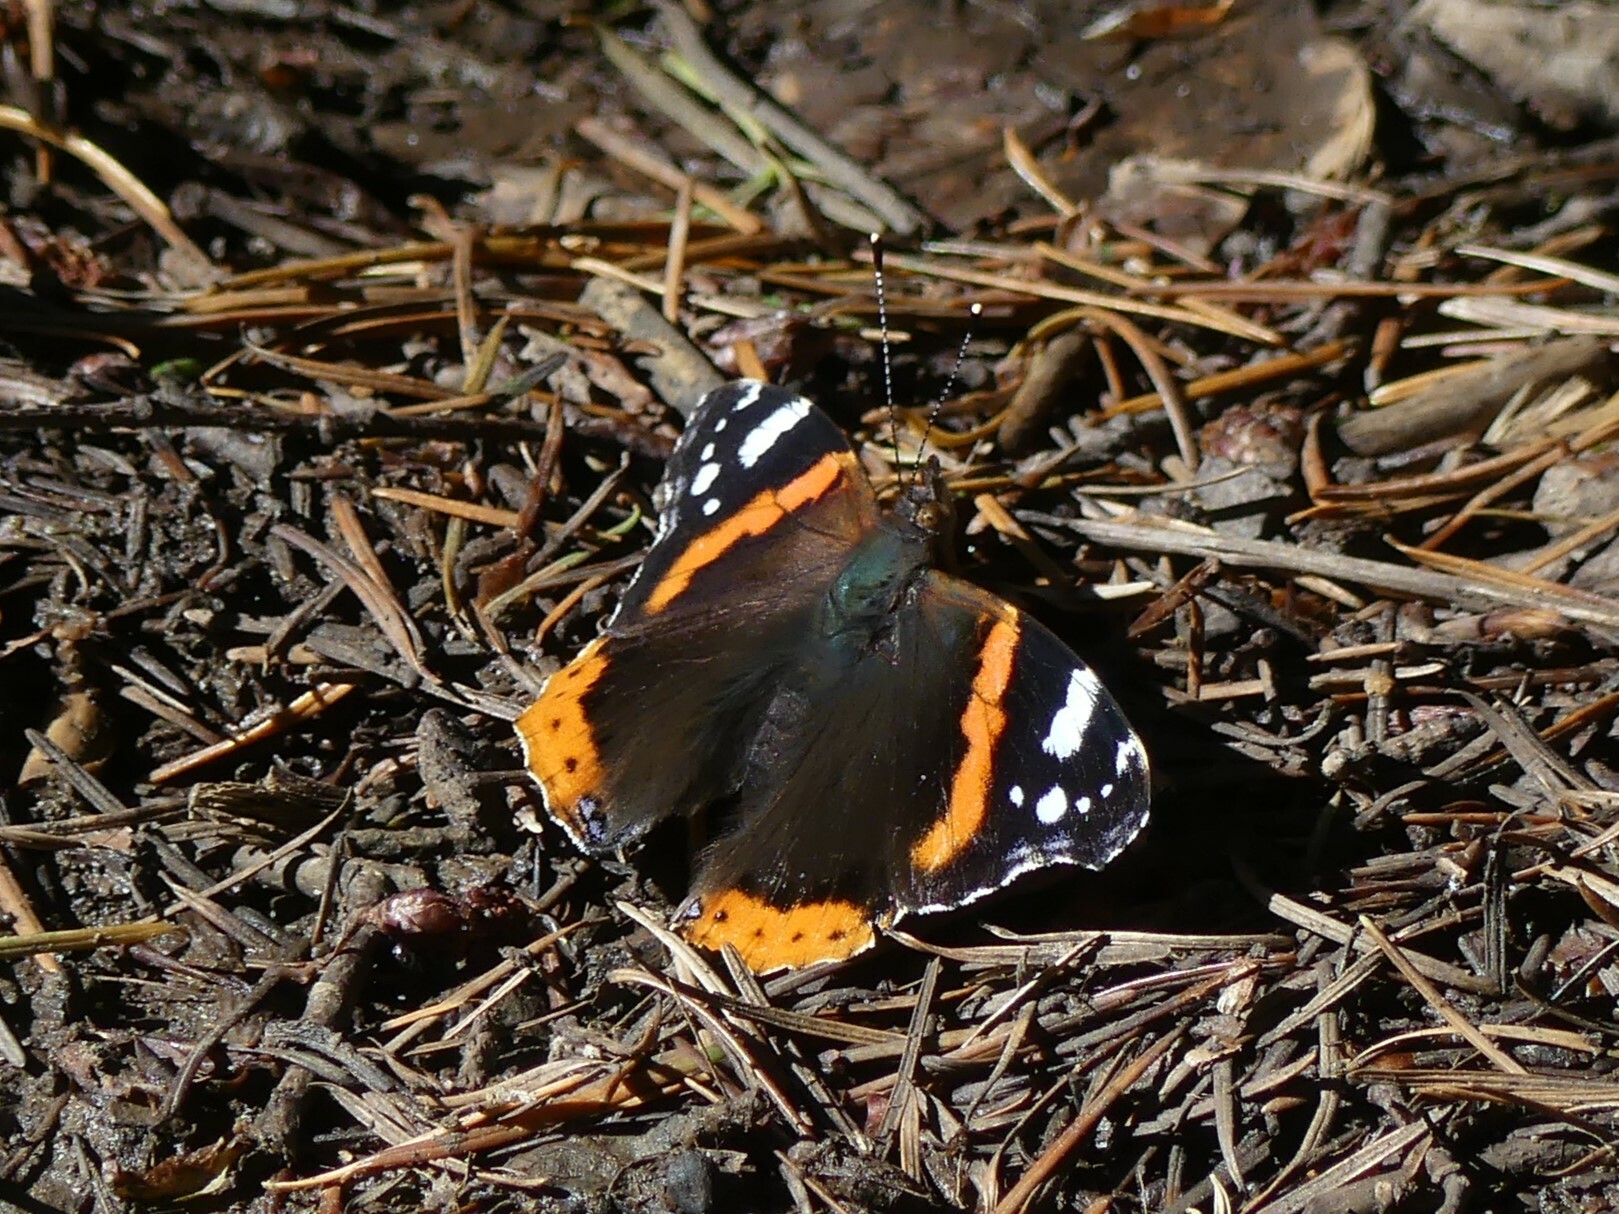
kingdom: Animalia
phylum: Arthropoda
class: Insecta
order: Lepidoptera
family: Nymphalidae
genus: Vanessa
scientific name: Vanessa atalanta
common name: Red admiral
